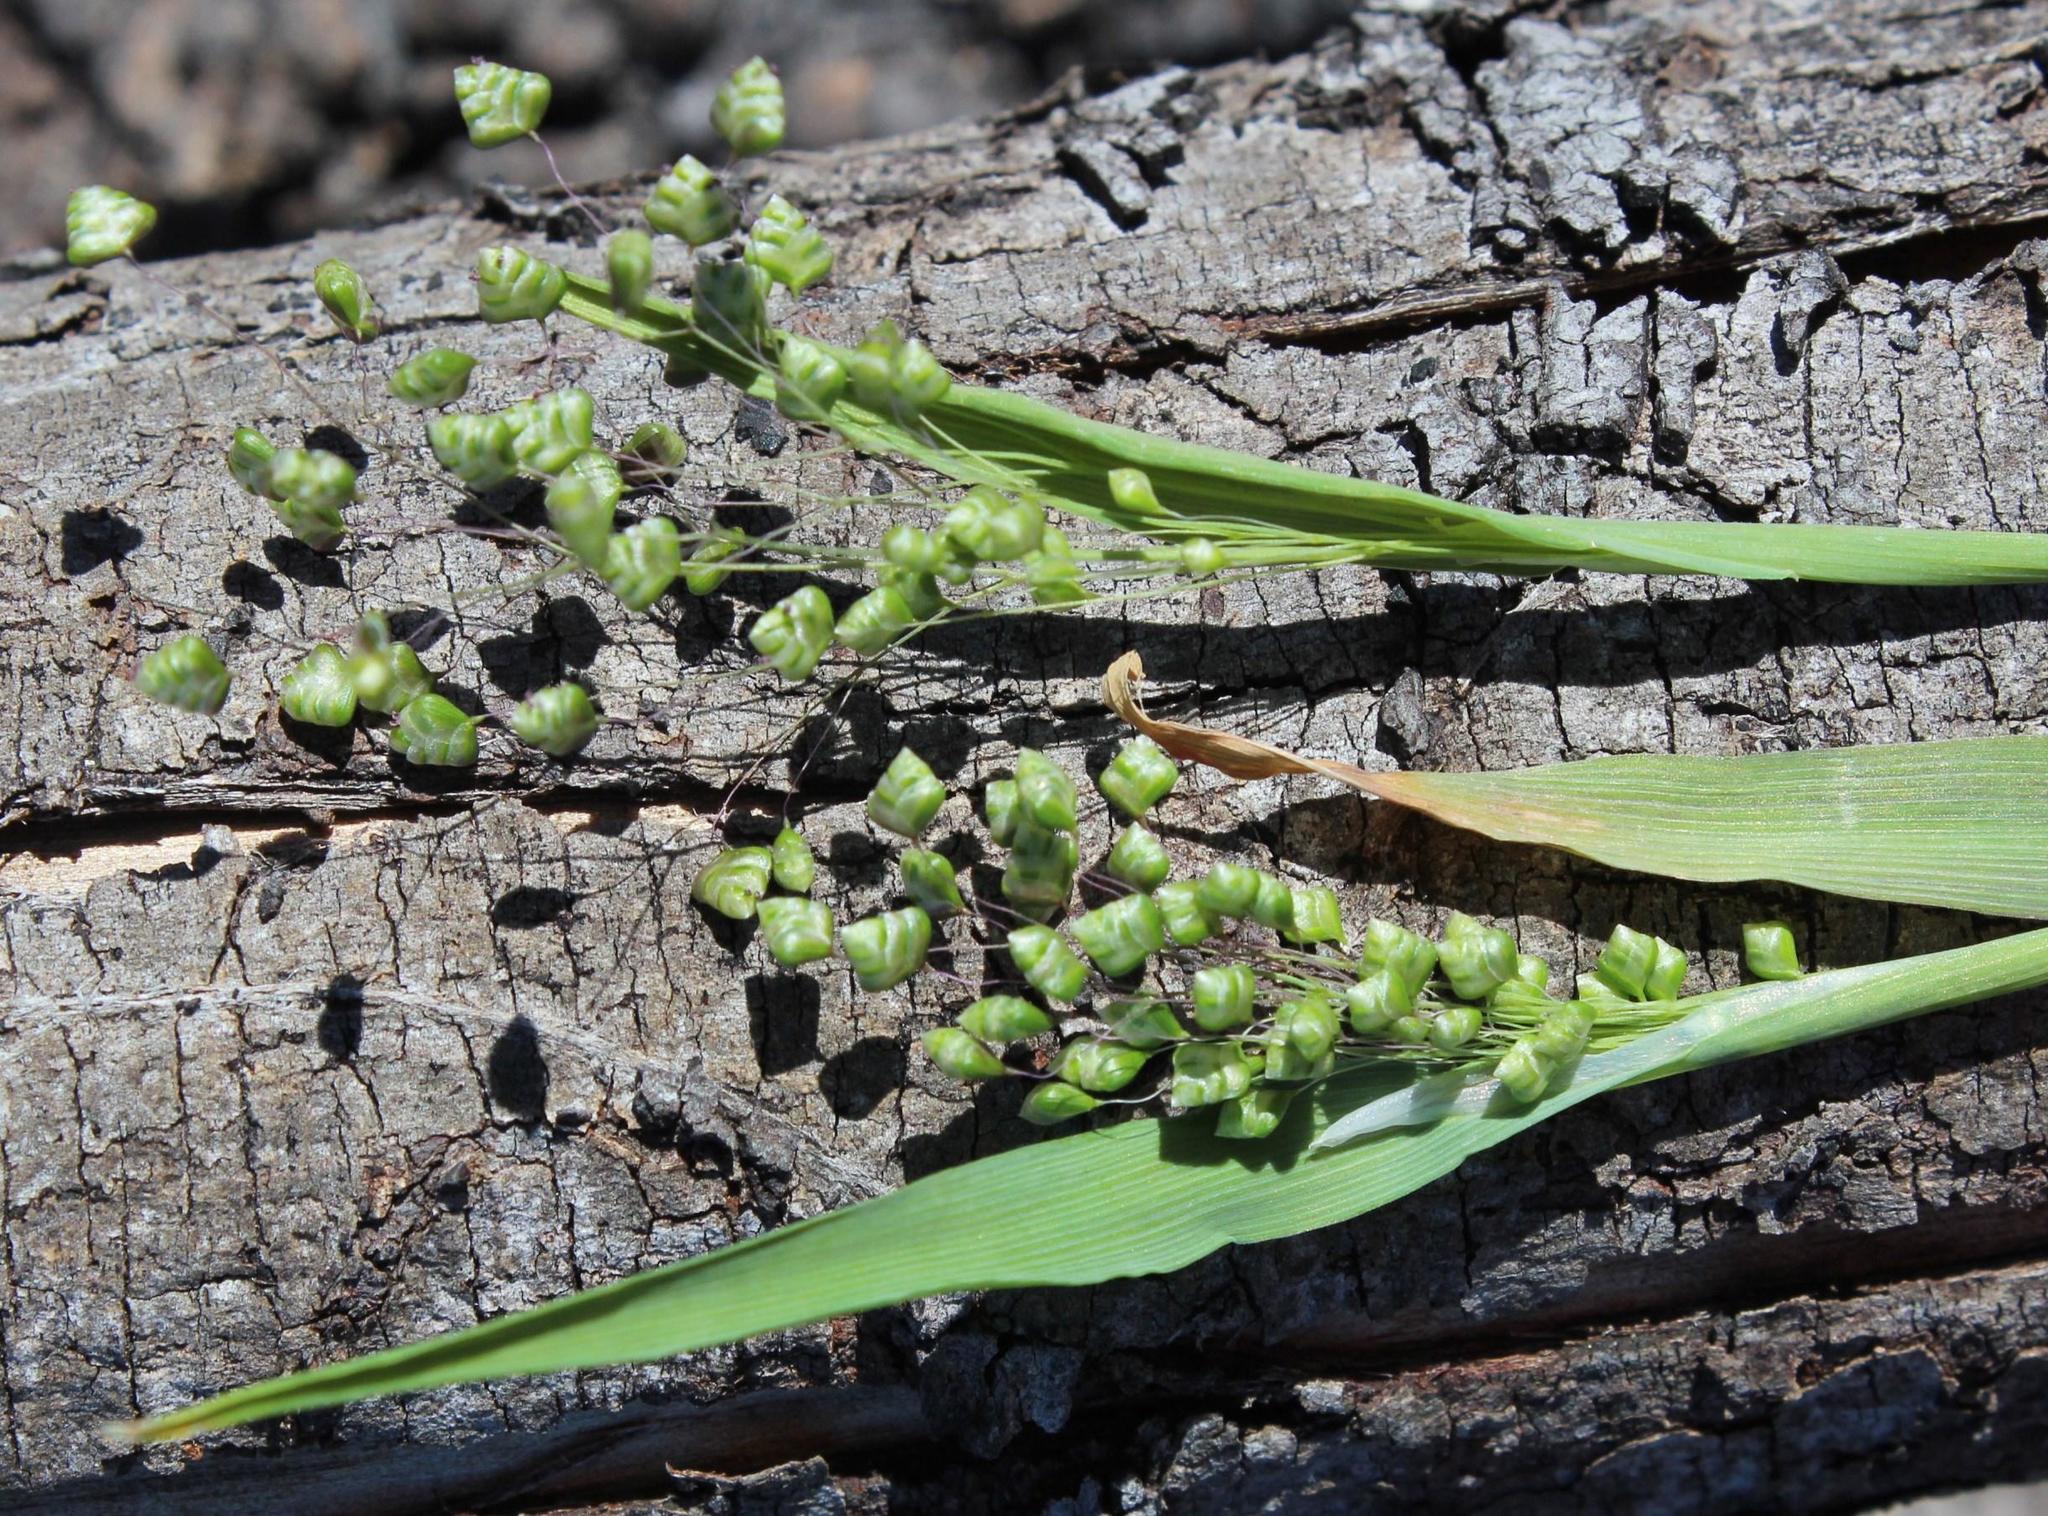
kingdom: Plantae
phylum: Tracheophyta
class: Liliopsida
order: Poales
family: Poaceae
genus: Briza
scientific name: Briza minor
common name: Lesser quaking-grass
